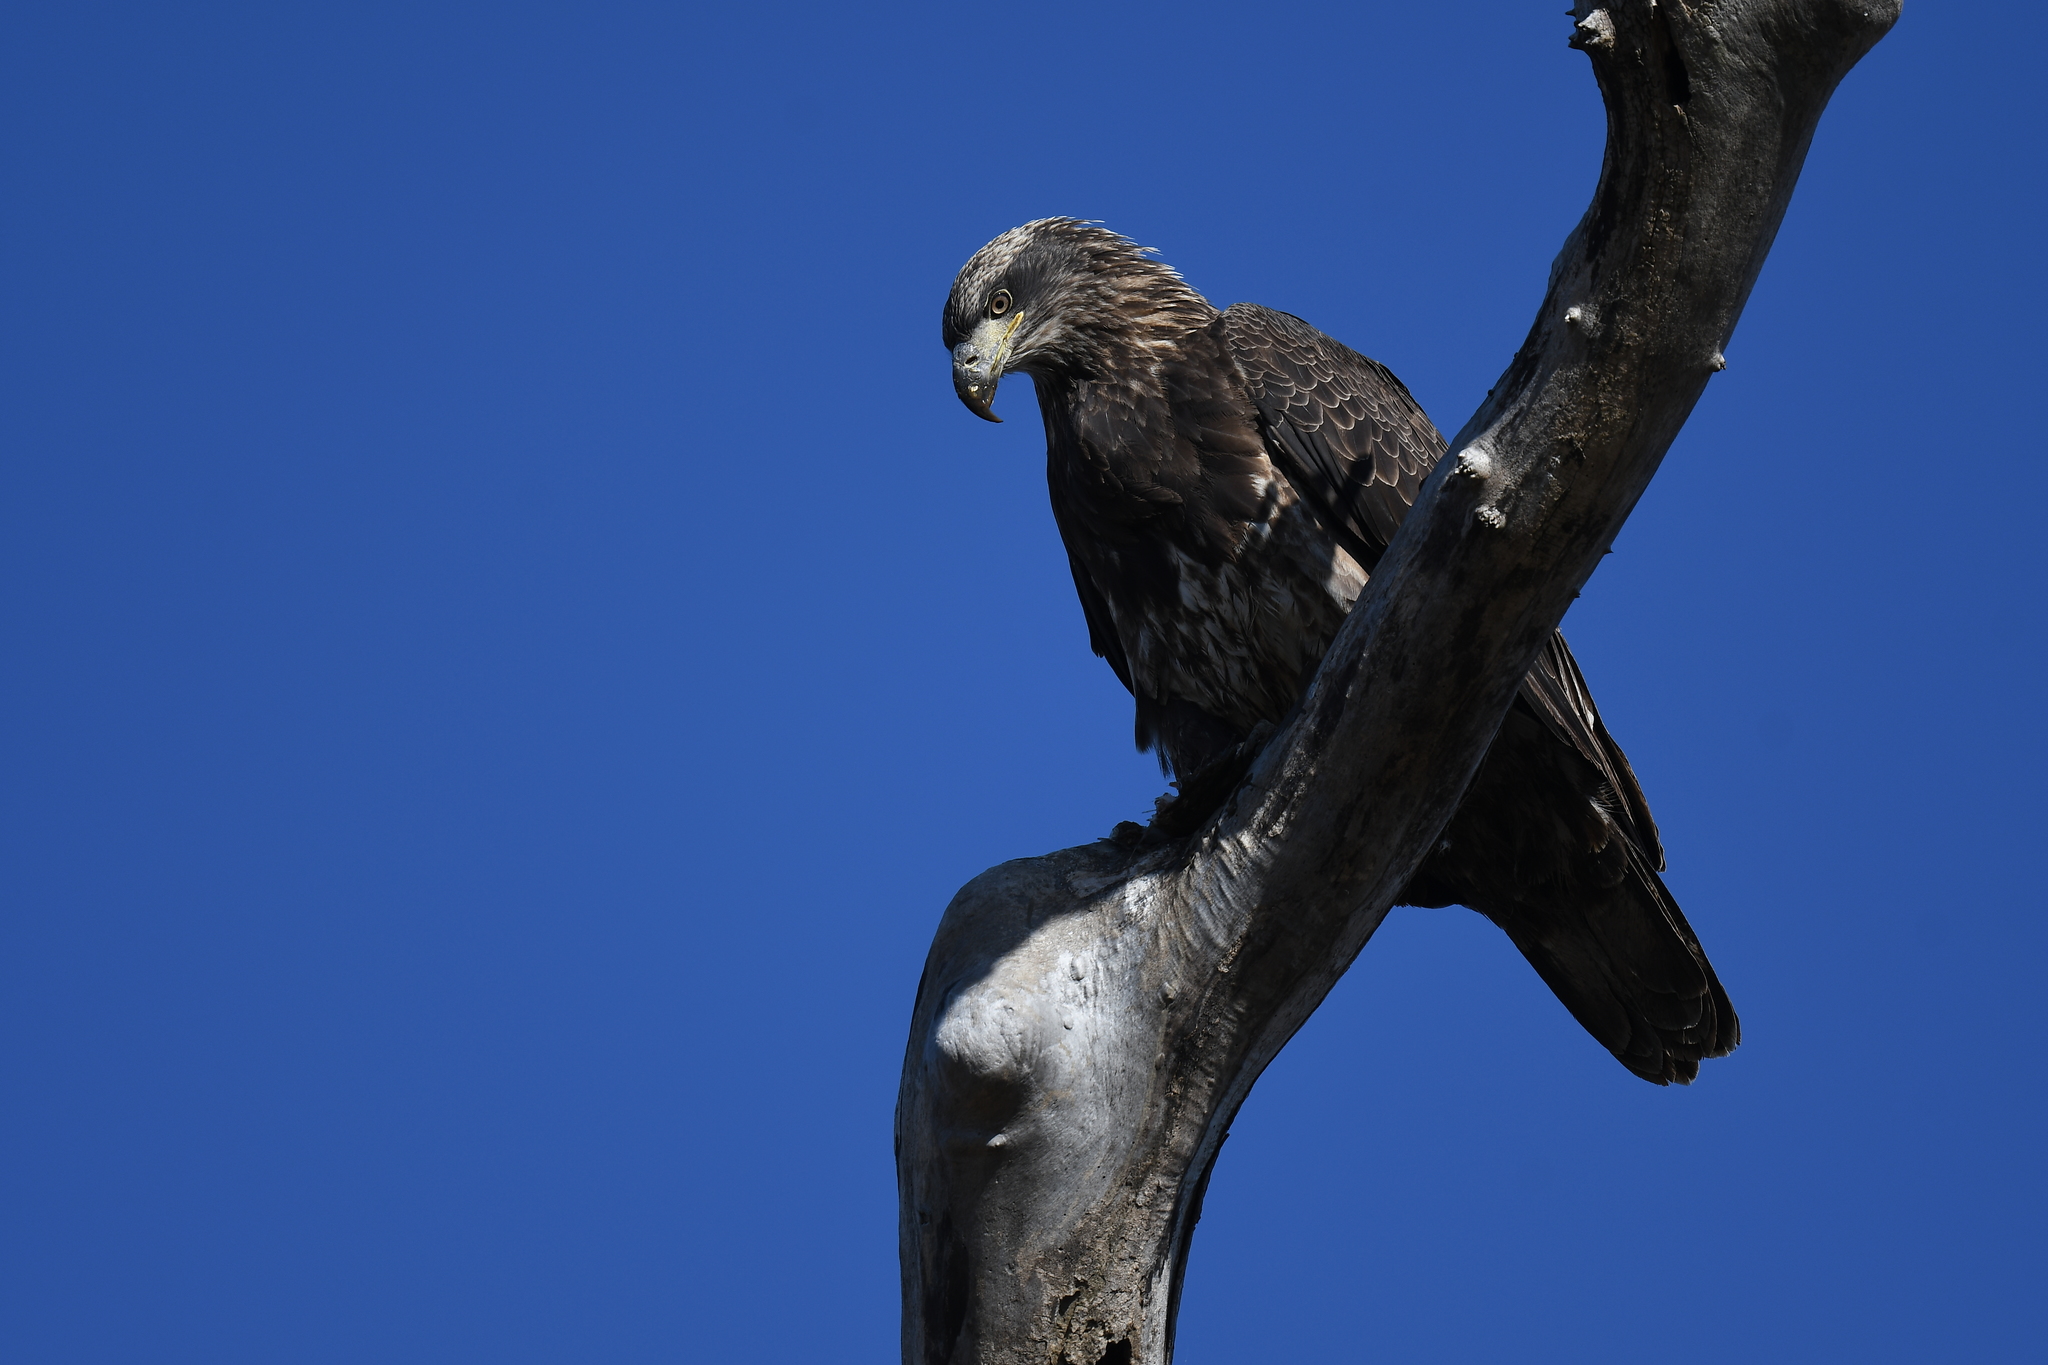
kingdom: Animalia
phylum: Chordata
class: Aves
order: Accipitriformes
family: Accipitridae
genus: Haliaeetus
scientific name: Haliaeetus leucocephalus
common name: Bald eagle
